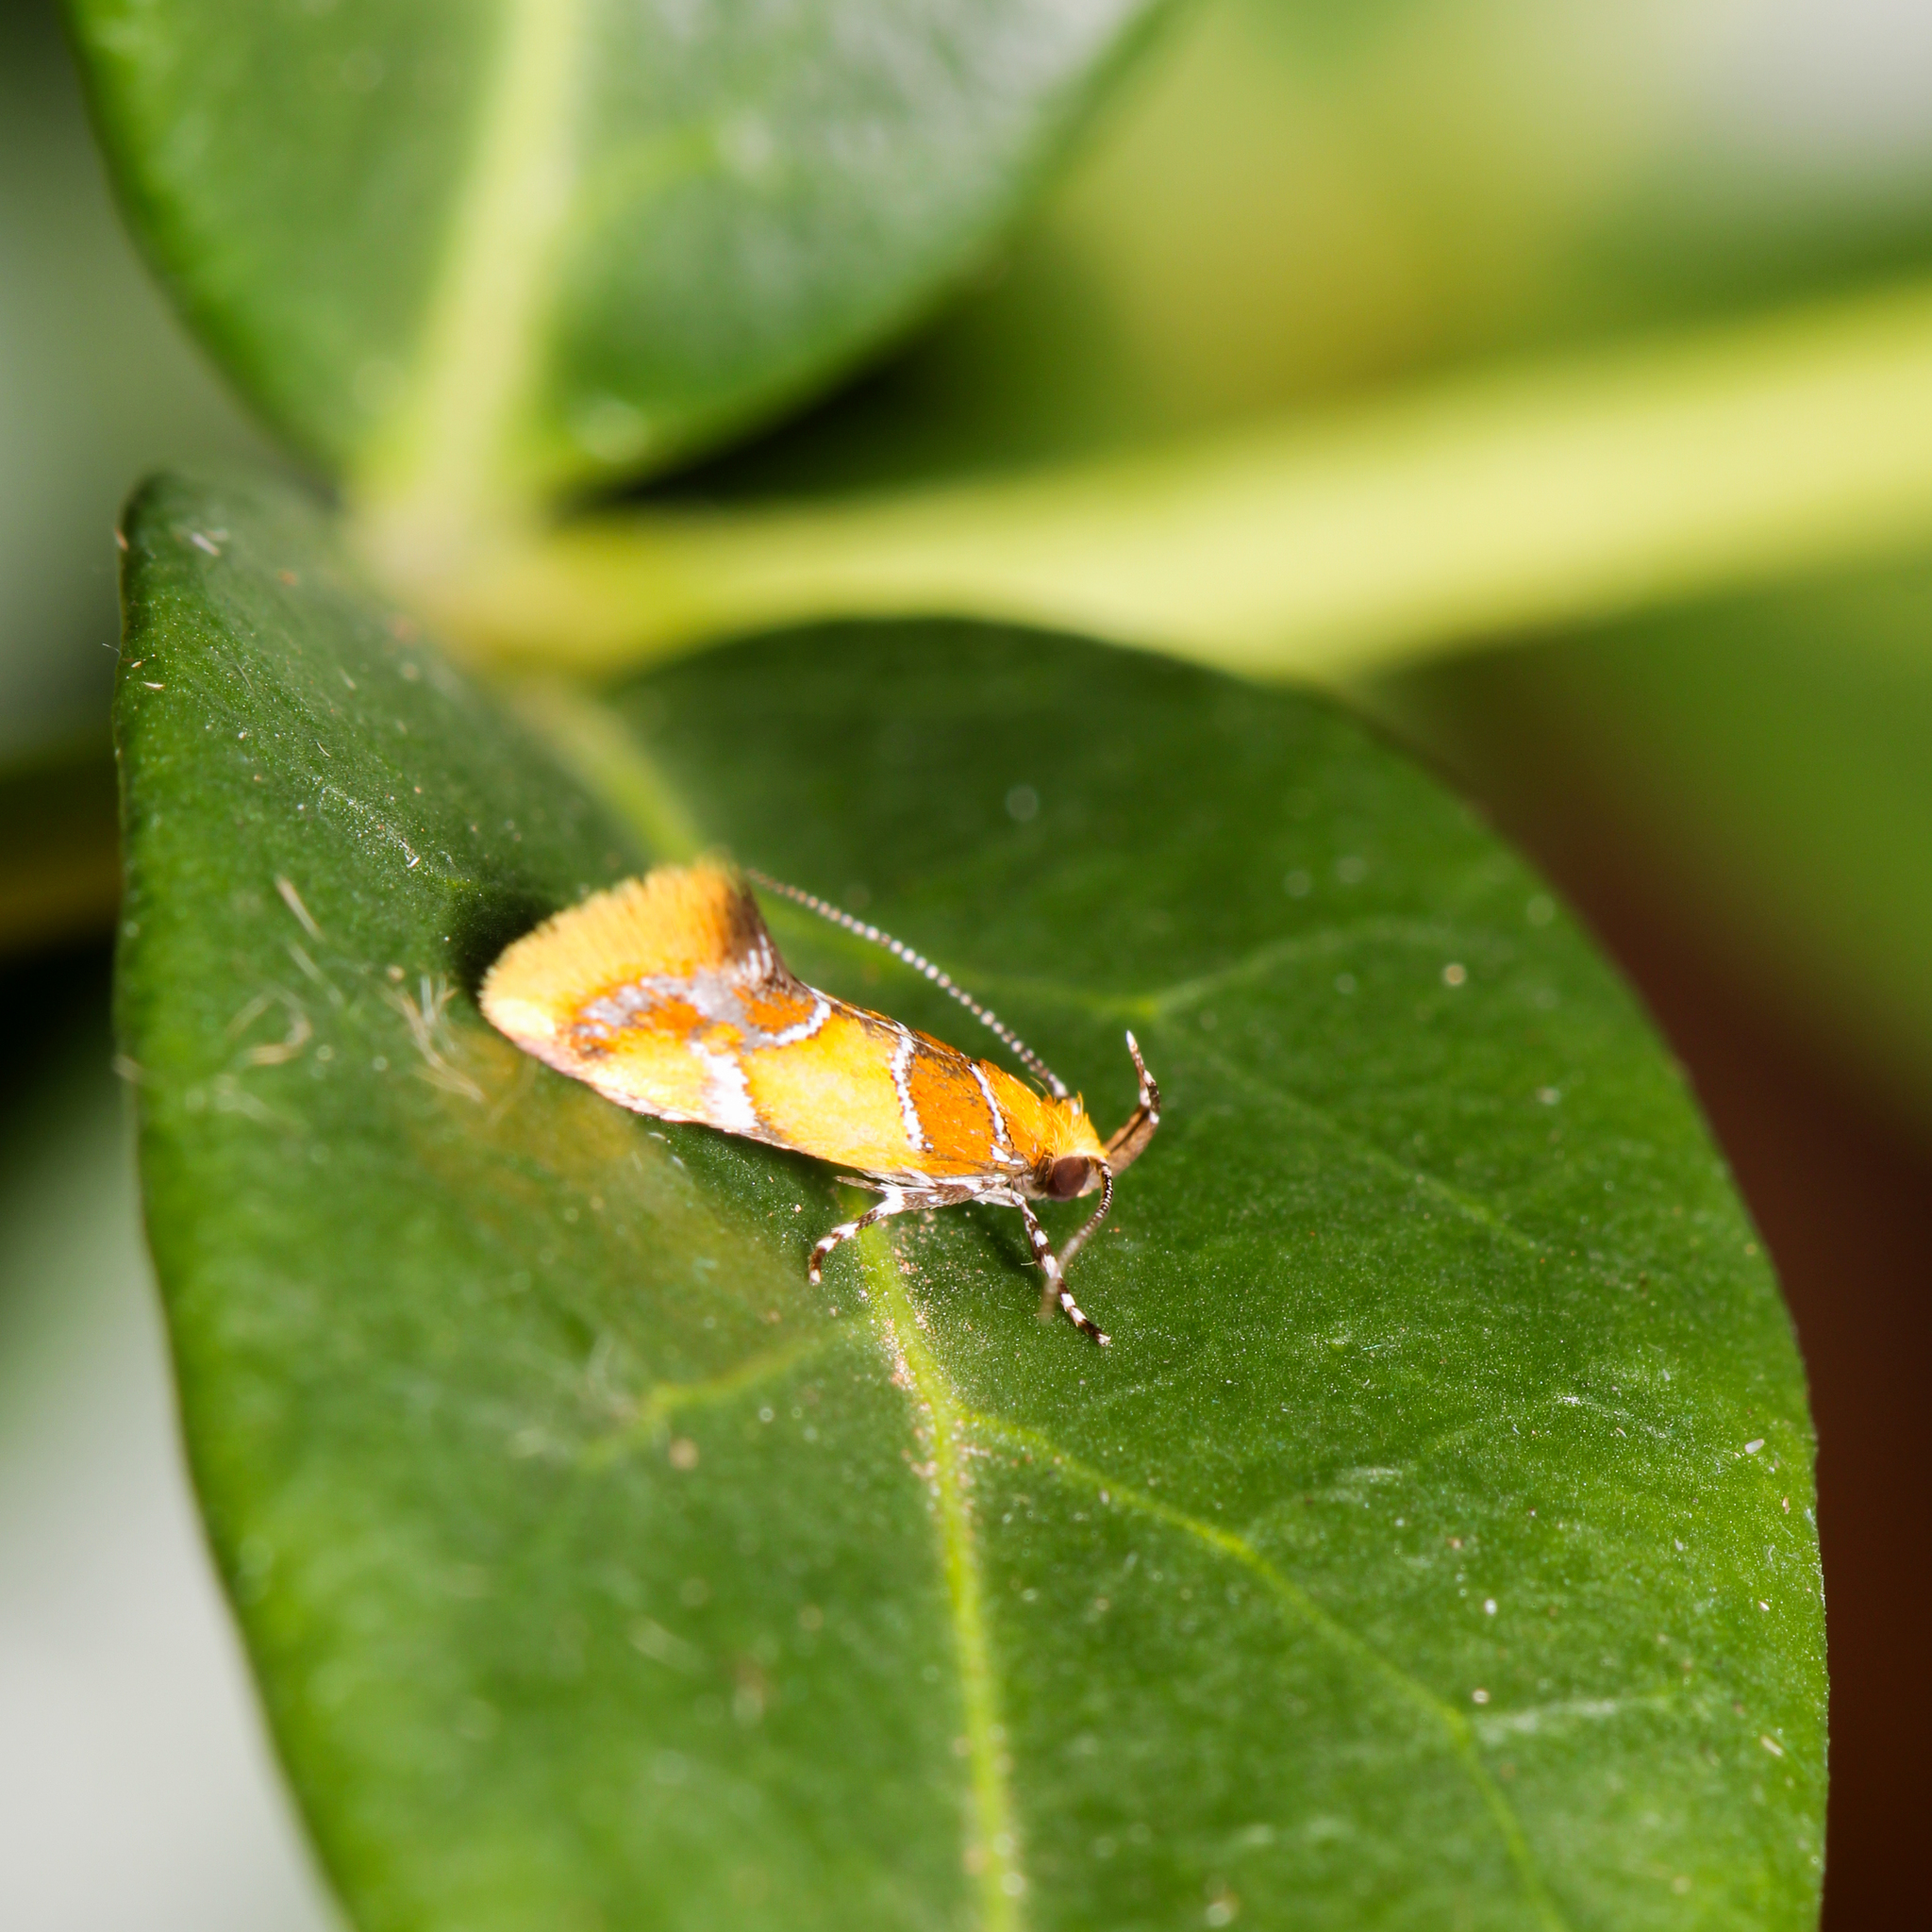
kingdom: Animalia
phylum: Arthropoda
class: Insecta
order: Lepidoptera
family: Oecophoridae
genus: Callima
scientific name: Callima argenticinctella
